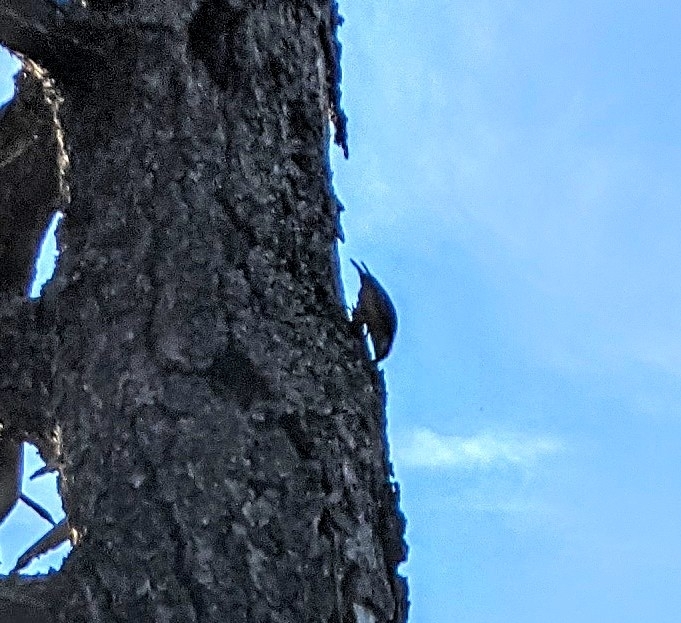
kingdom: Animalia
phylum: Chordata
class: Aves
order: Passeriformes
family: Sittidae
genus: Sitta
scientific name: Sitta canadensis
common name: Red-breasted nuthatch
